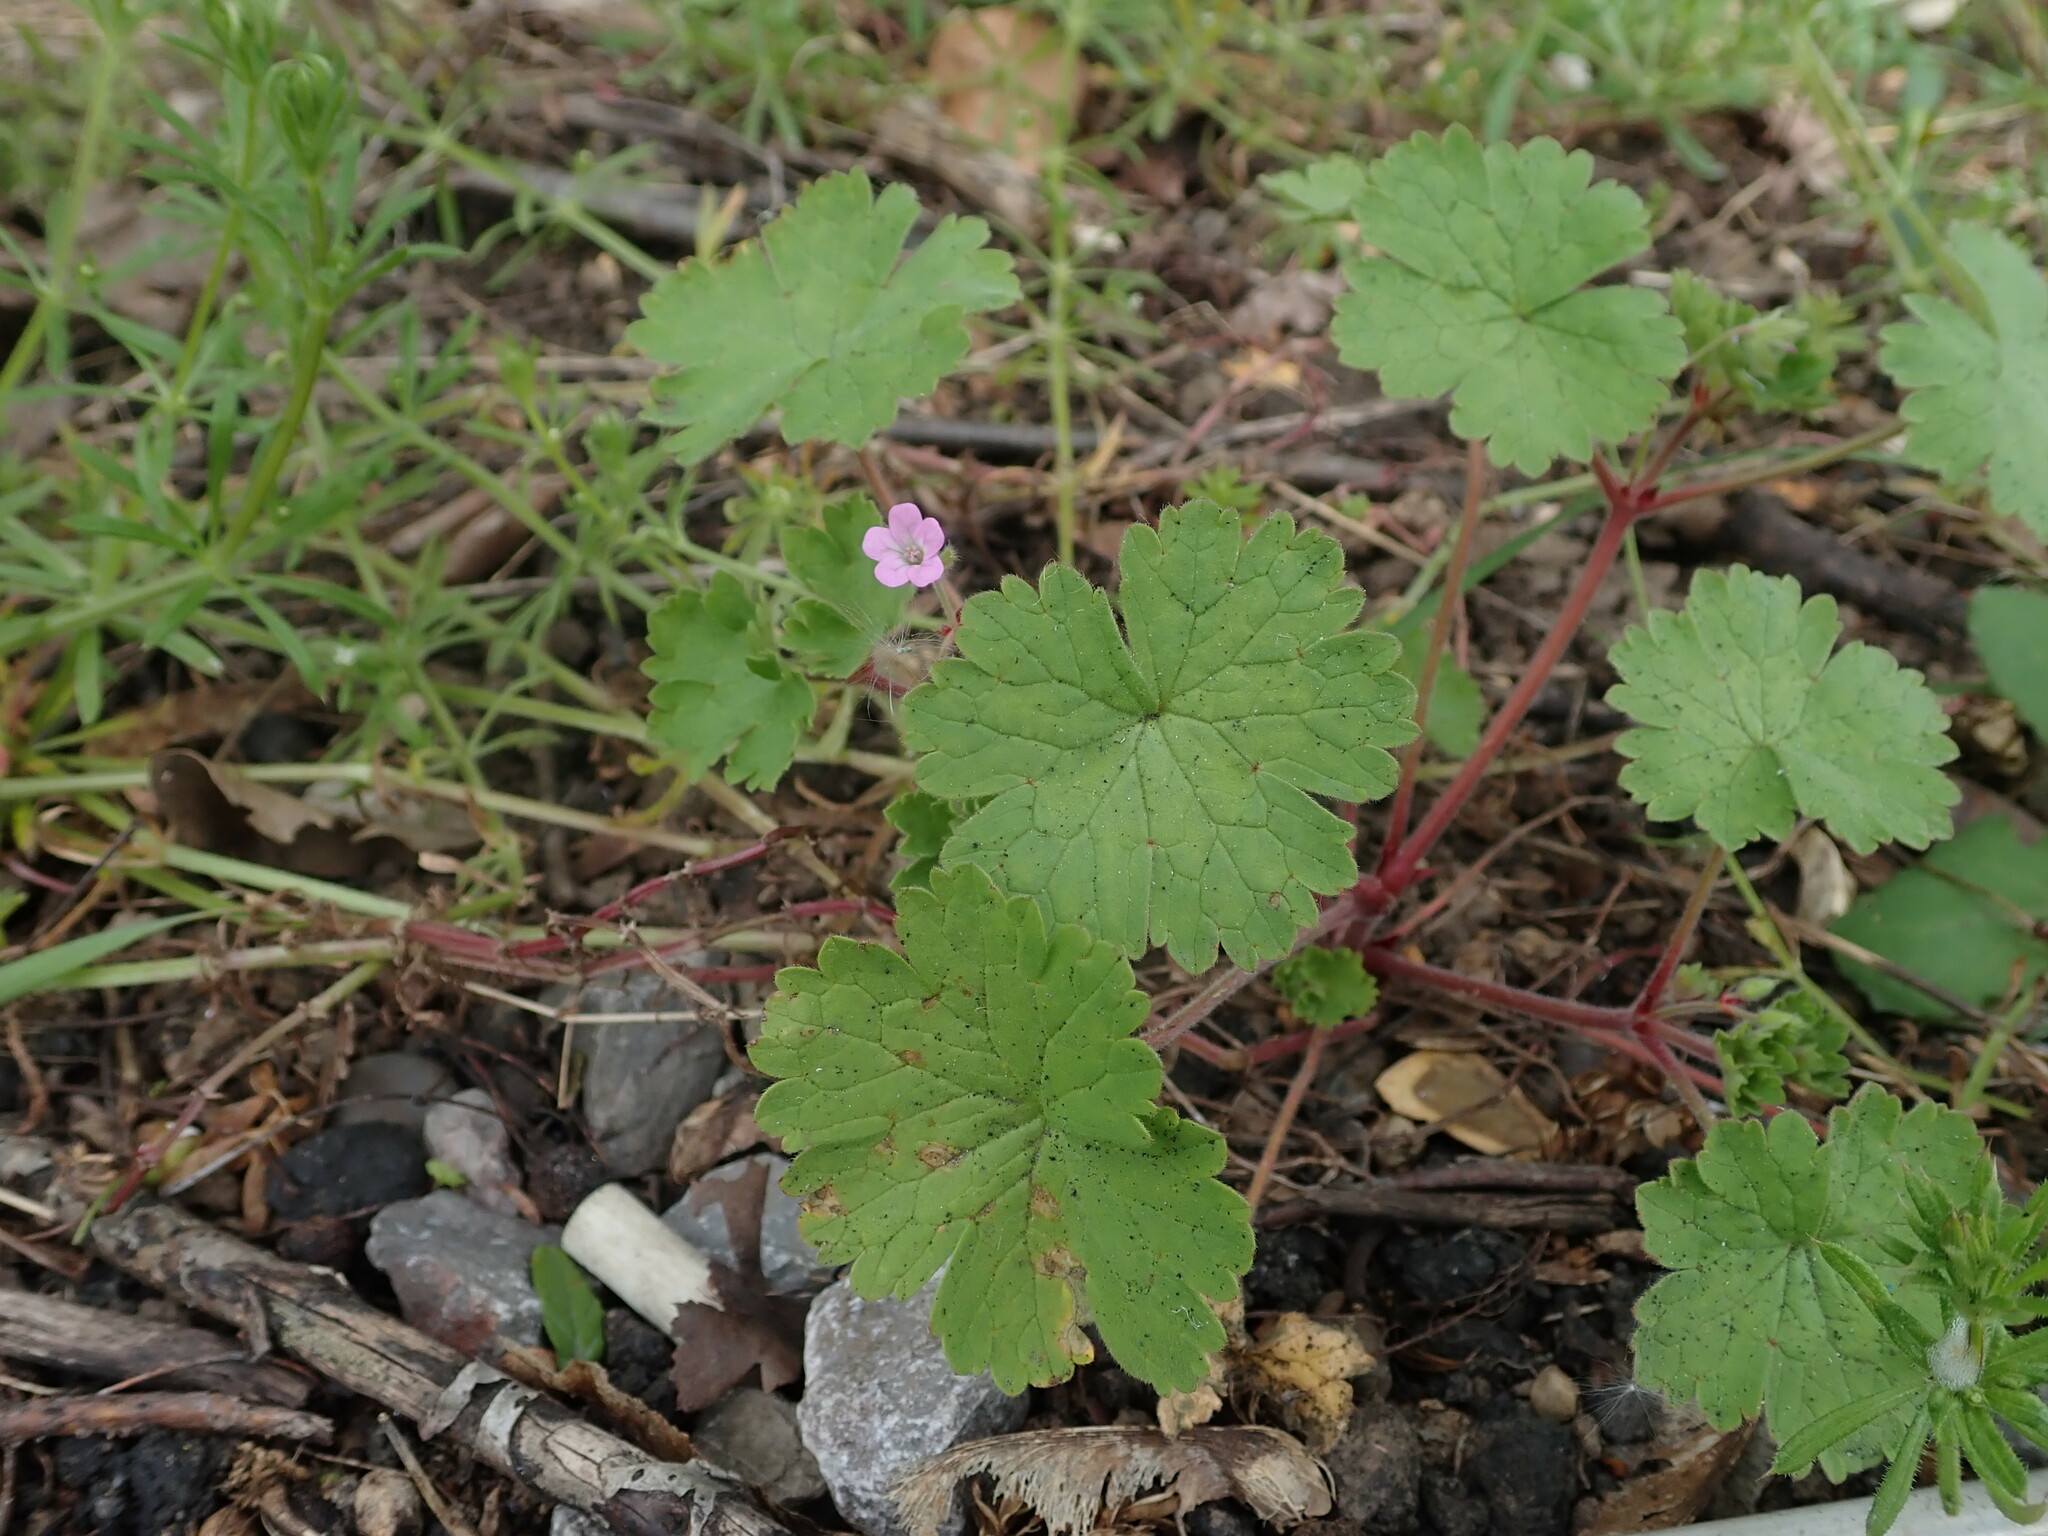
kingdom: Plantae
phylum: Tracheophyta
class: Magnoliopsida
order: Geraniales
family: Geraniaceae
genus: Geranium
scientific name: Geranium rotundifolium
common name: Round-leaved crane's-bill
